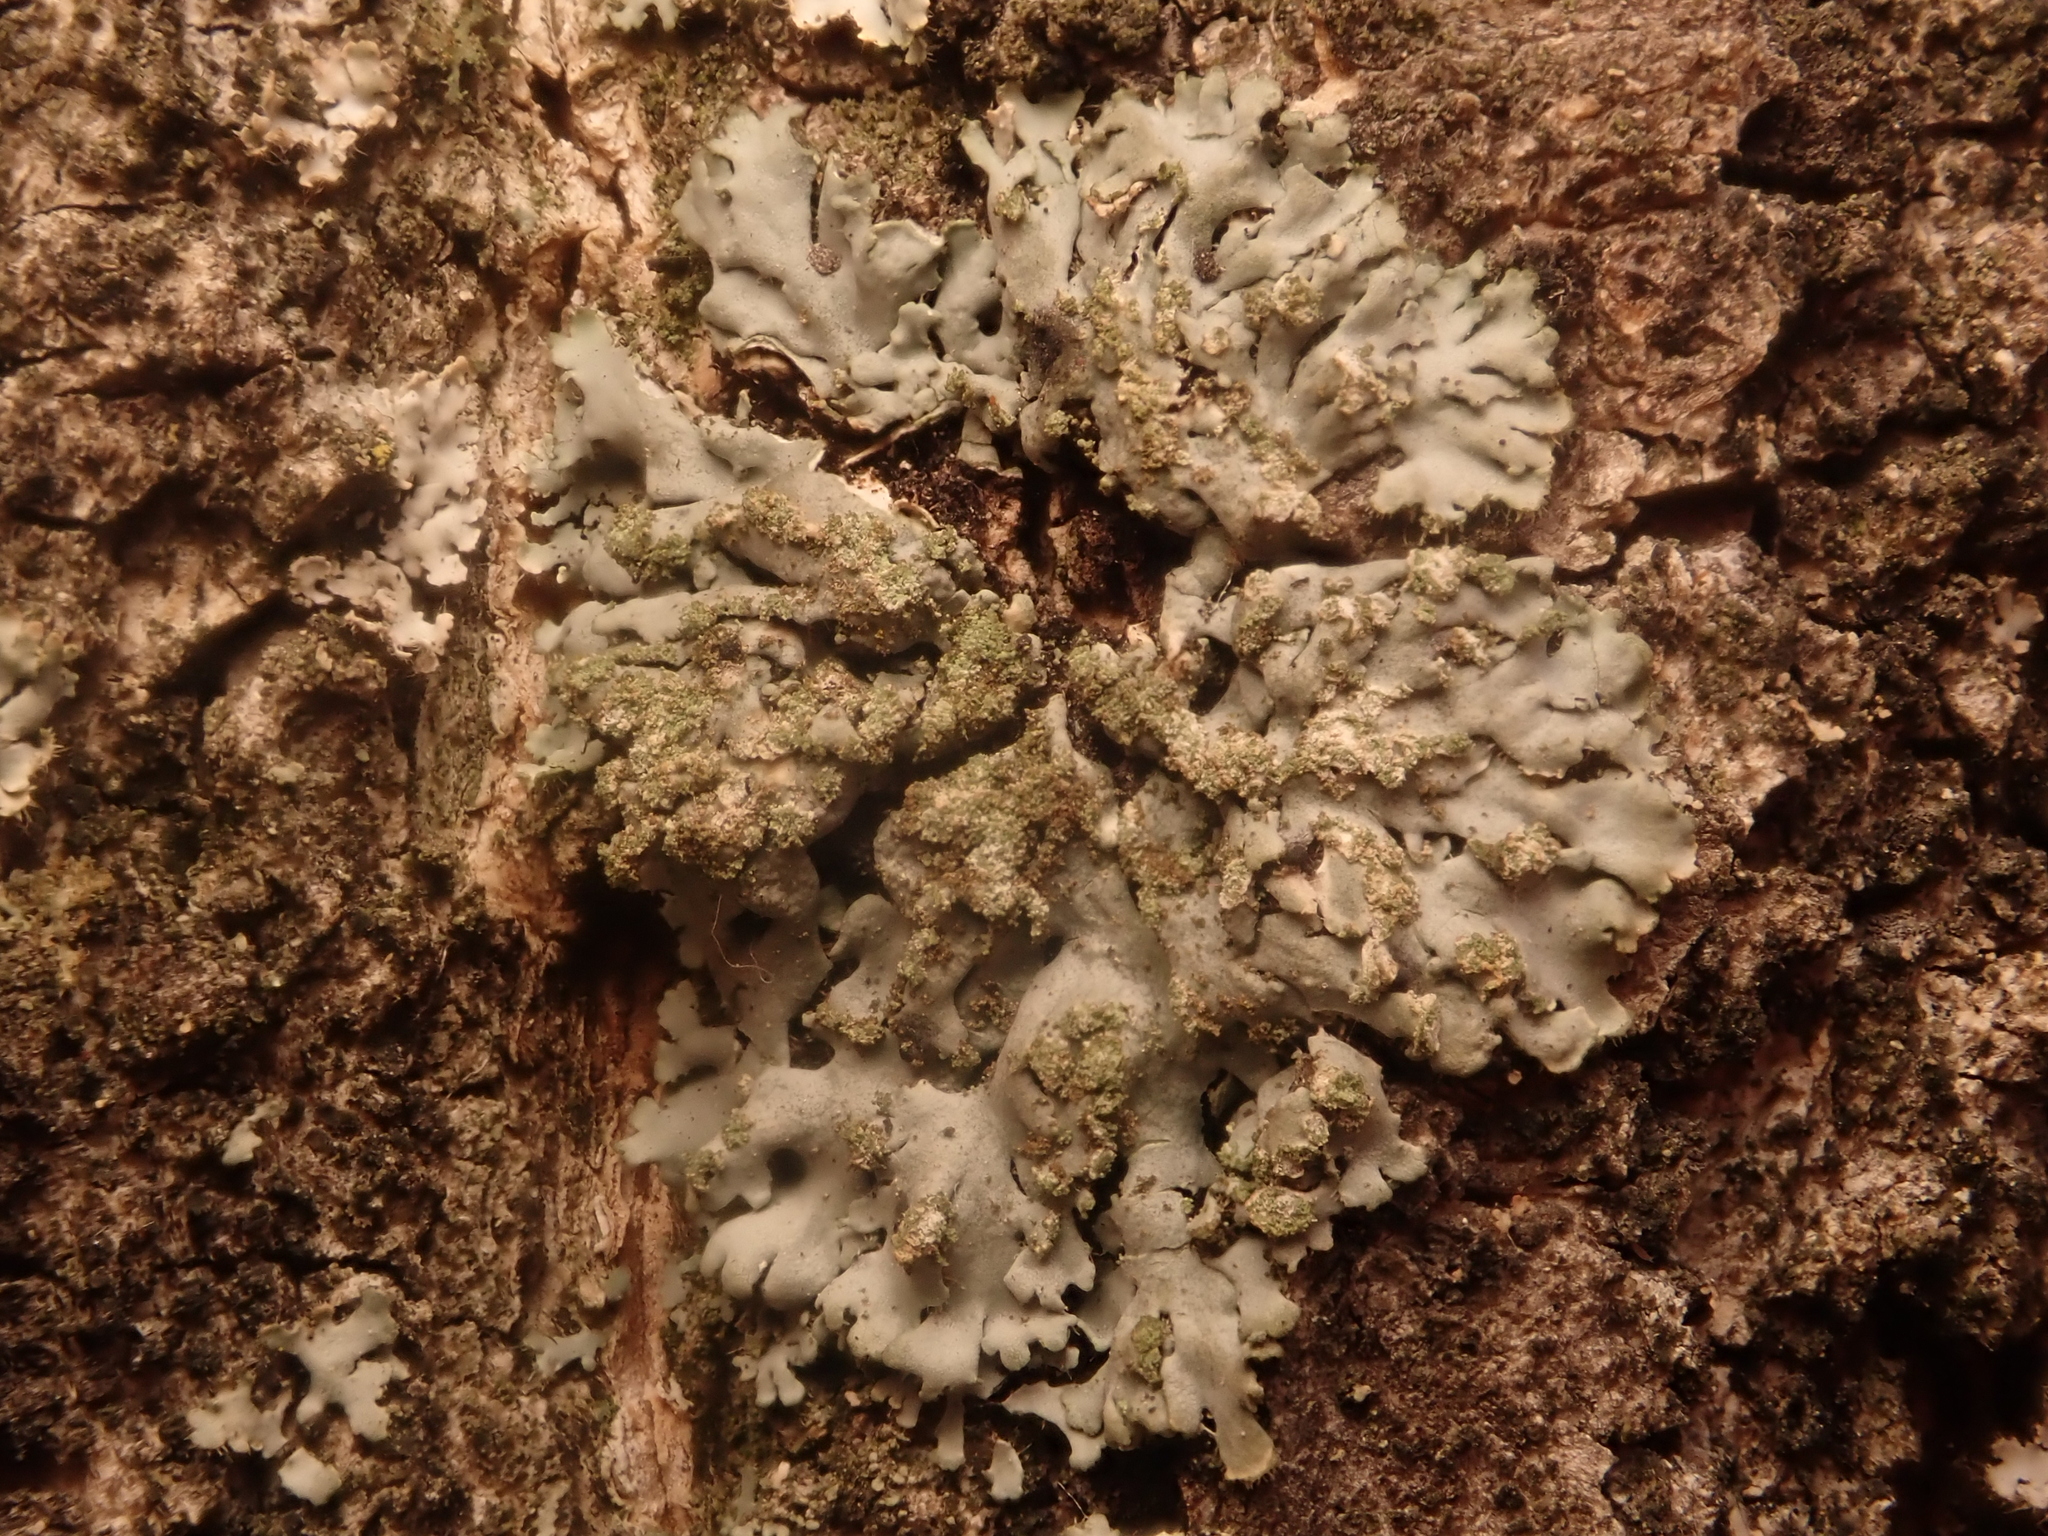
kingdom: Fungi
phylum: Ascomycota
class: Lecanoromycetes
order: Caliciales
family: Physciaceae
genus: Phaeophyscia
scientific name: Phaeophyscia orbicularis
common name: Mealy shadow lichen
